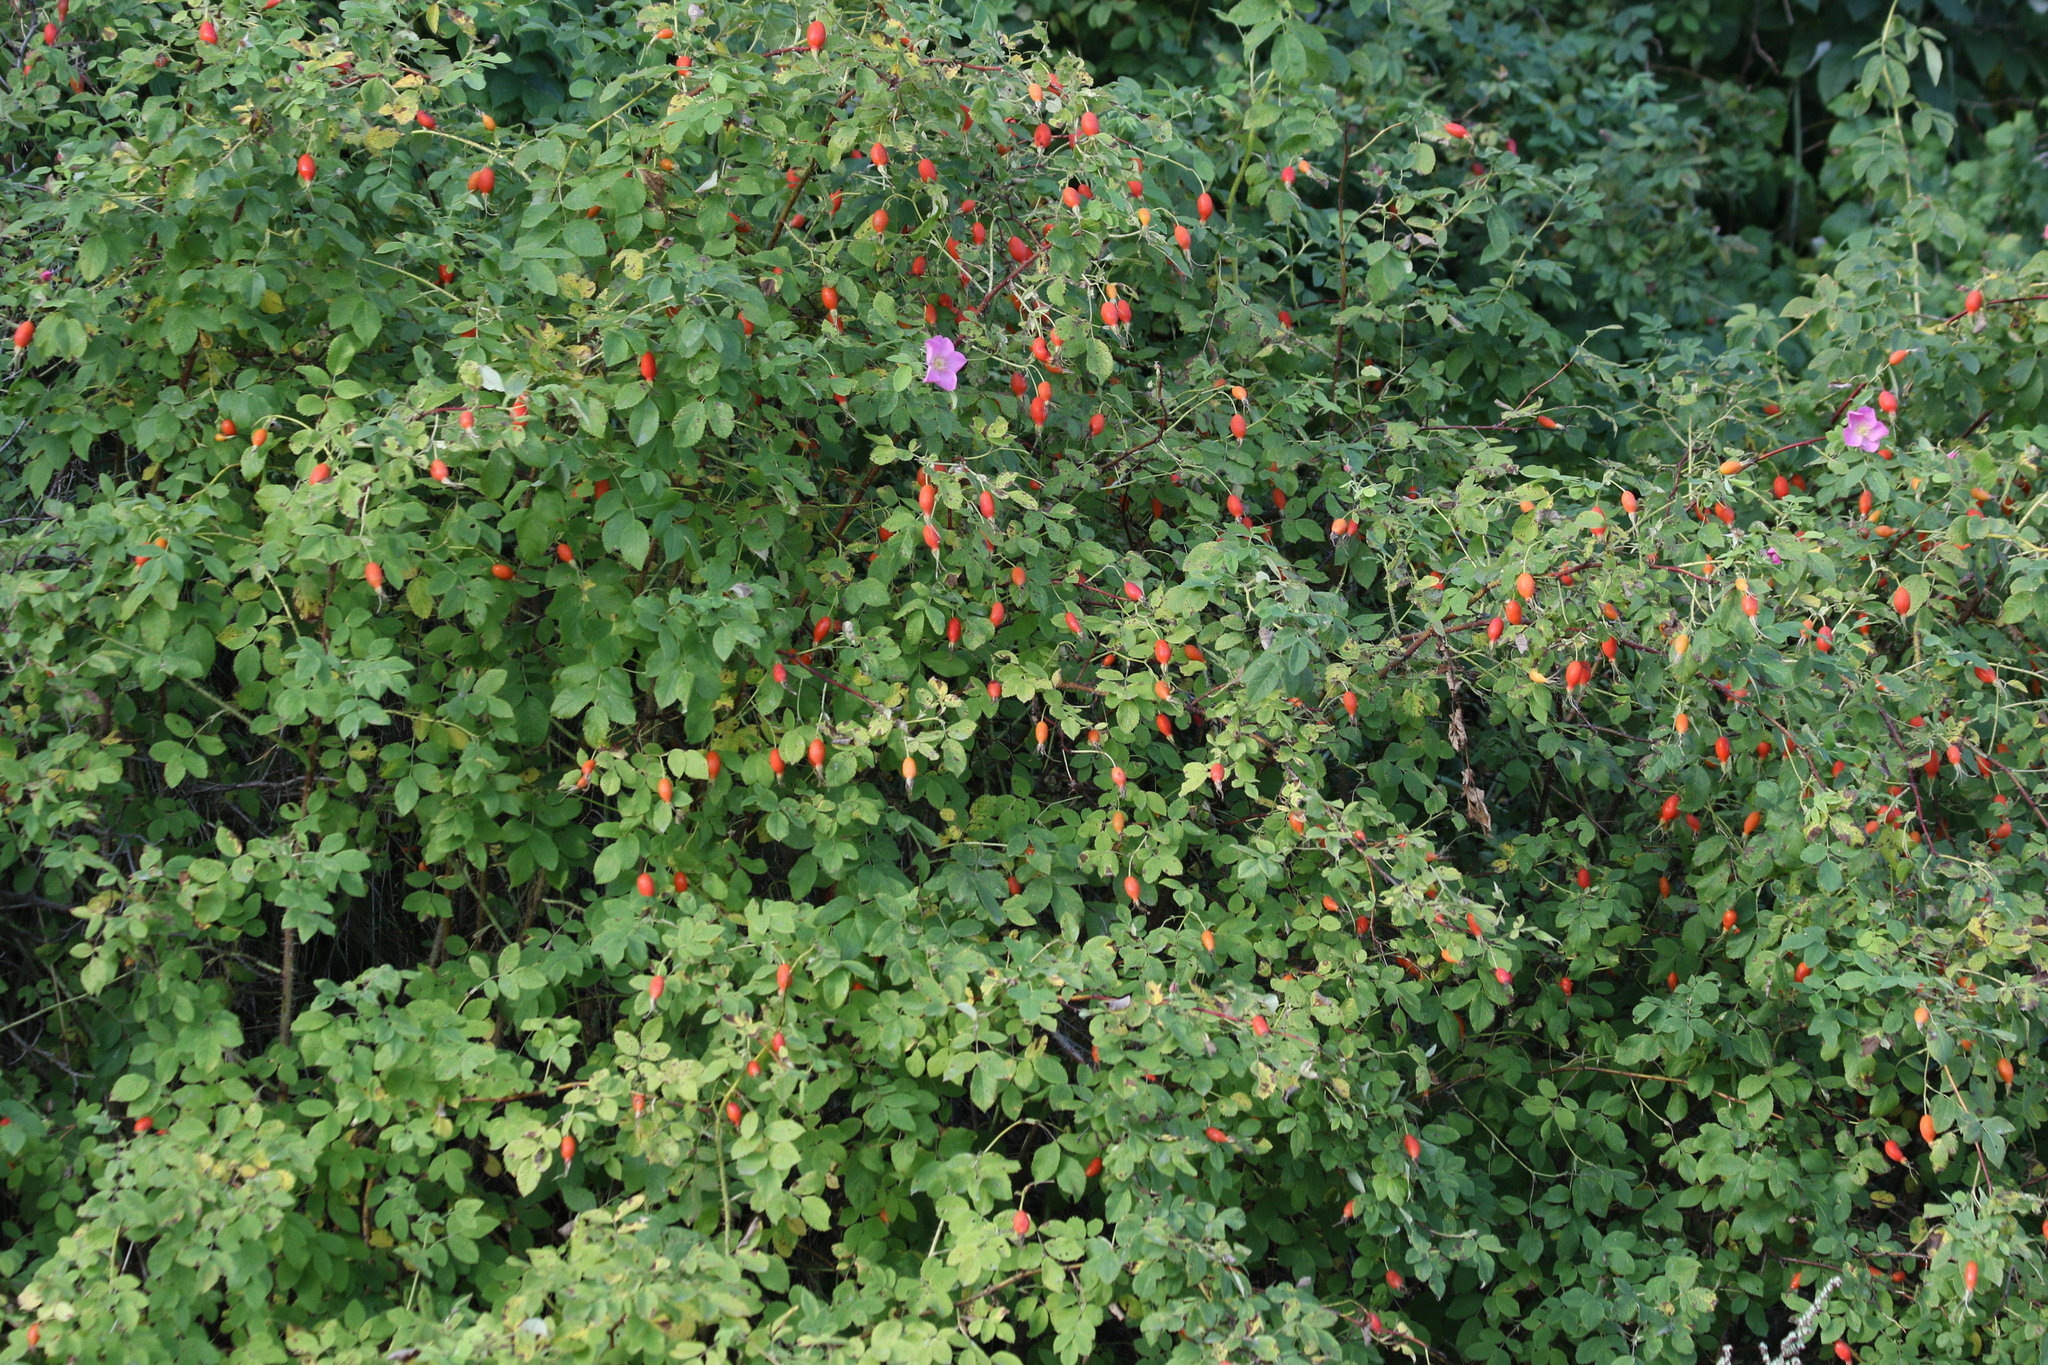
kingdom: Plantae
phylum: Tracheophyta
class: Magnoliopsida
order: Rosales
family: Rosaceae
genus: Rosa
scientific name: Rosa acicularis
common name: Prickly rose
